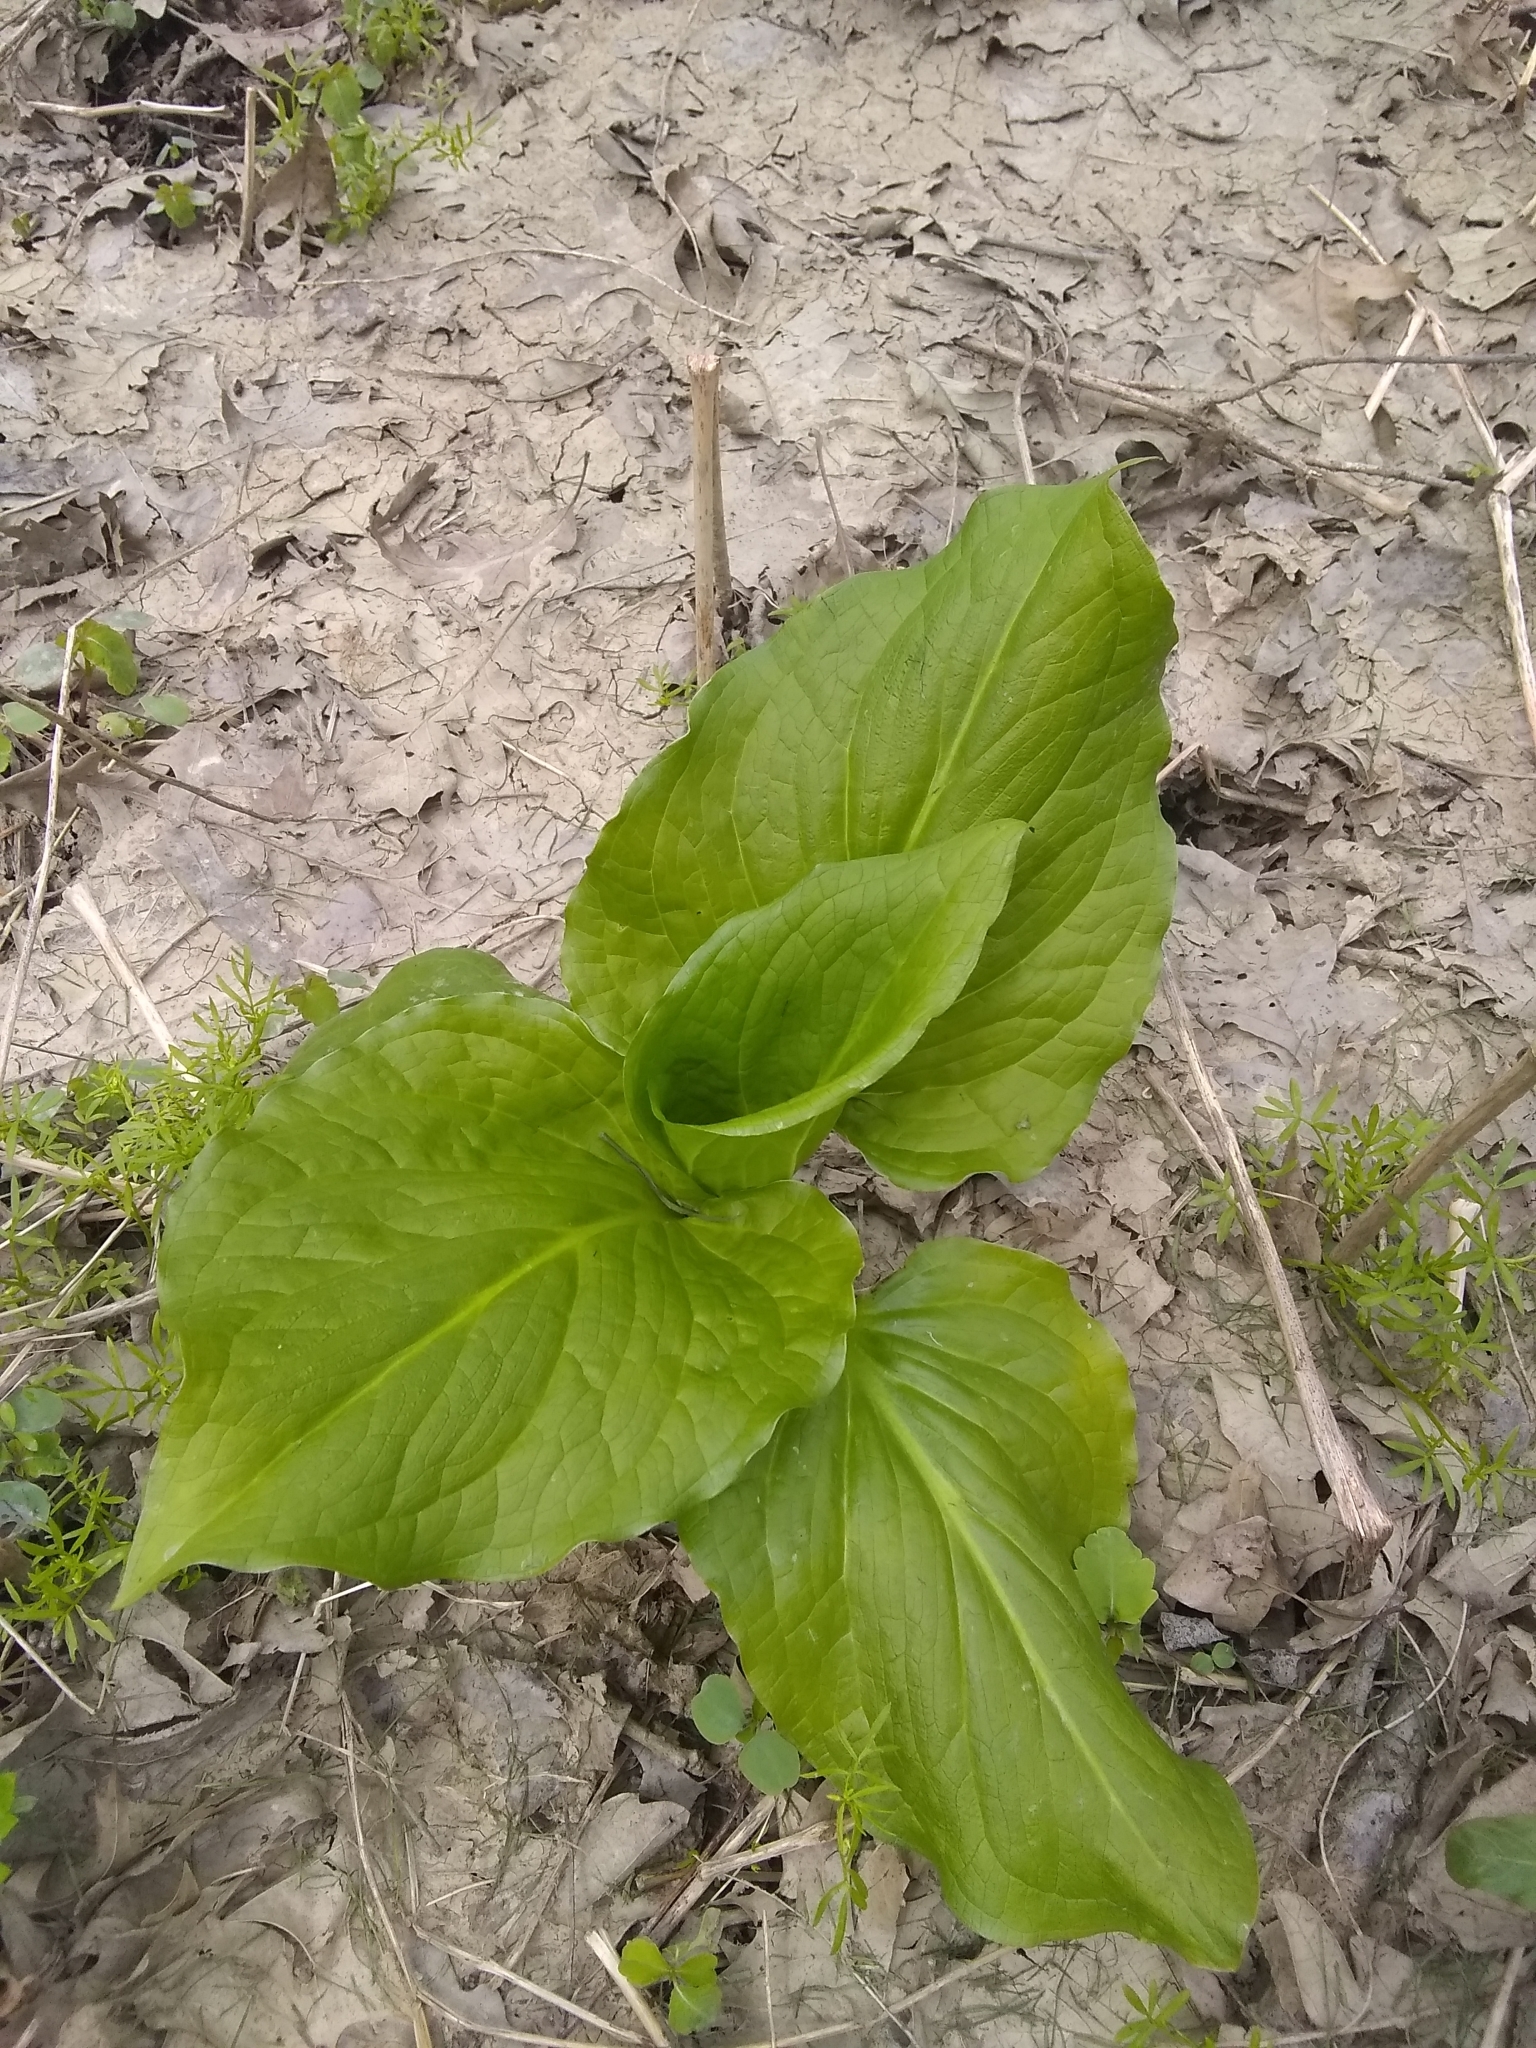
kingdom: Plantae
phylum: Tracheophyta
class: Liliopsida
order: Alismatales
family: Araceae
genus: Symplocarpus
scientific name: Symplocarpus foetidus
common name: Eastern skunk cabbage
